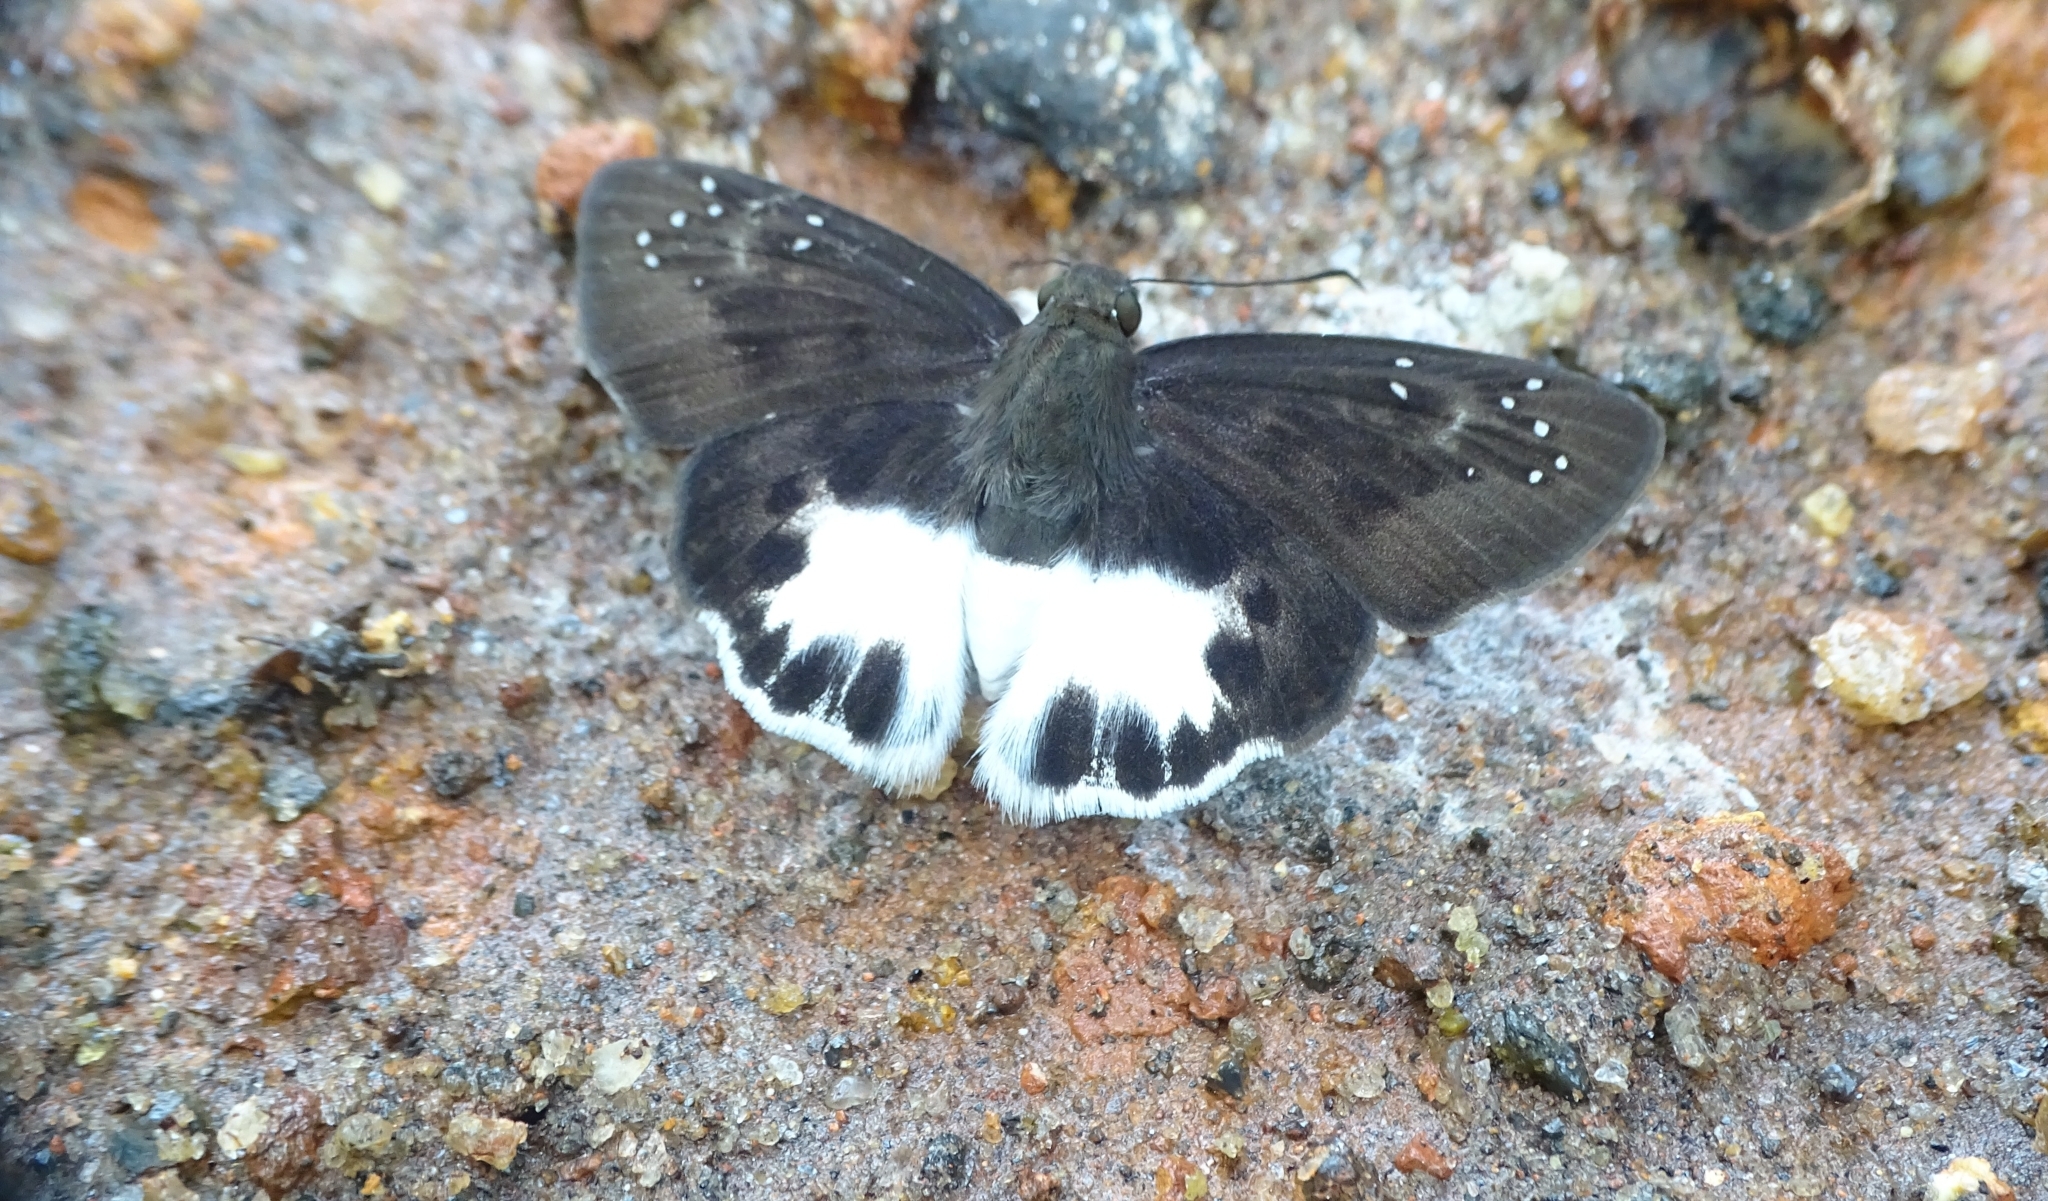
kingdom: Animalia
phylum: Arthropoda
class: Insecta
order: Lepidoptera
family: Hesperiidae
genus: Tagiades
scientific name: Tagiades litigiosa
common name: Water snow flat
